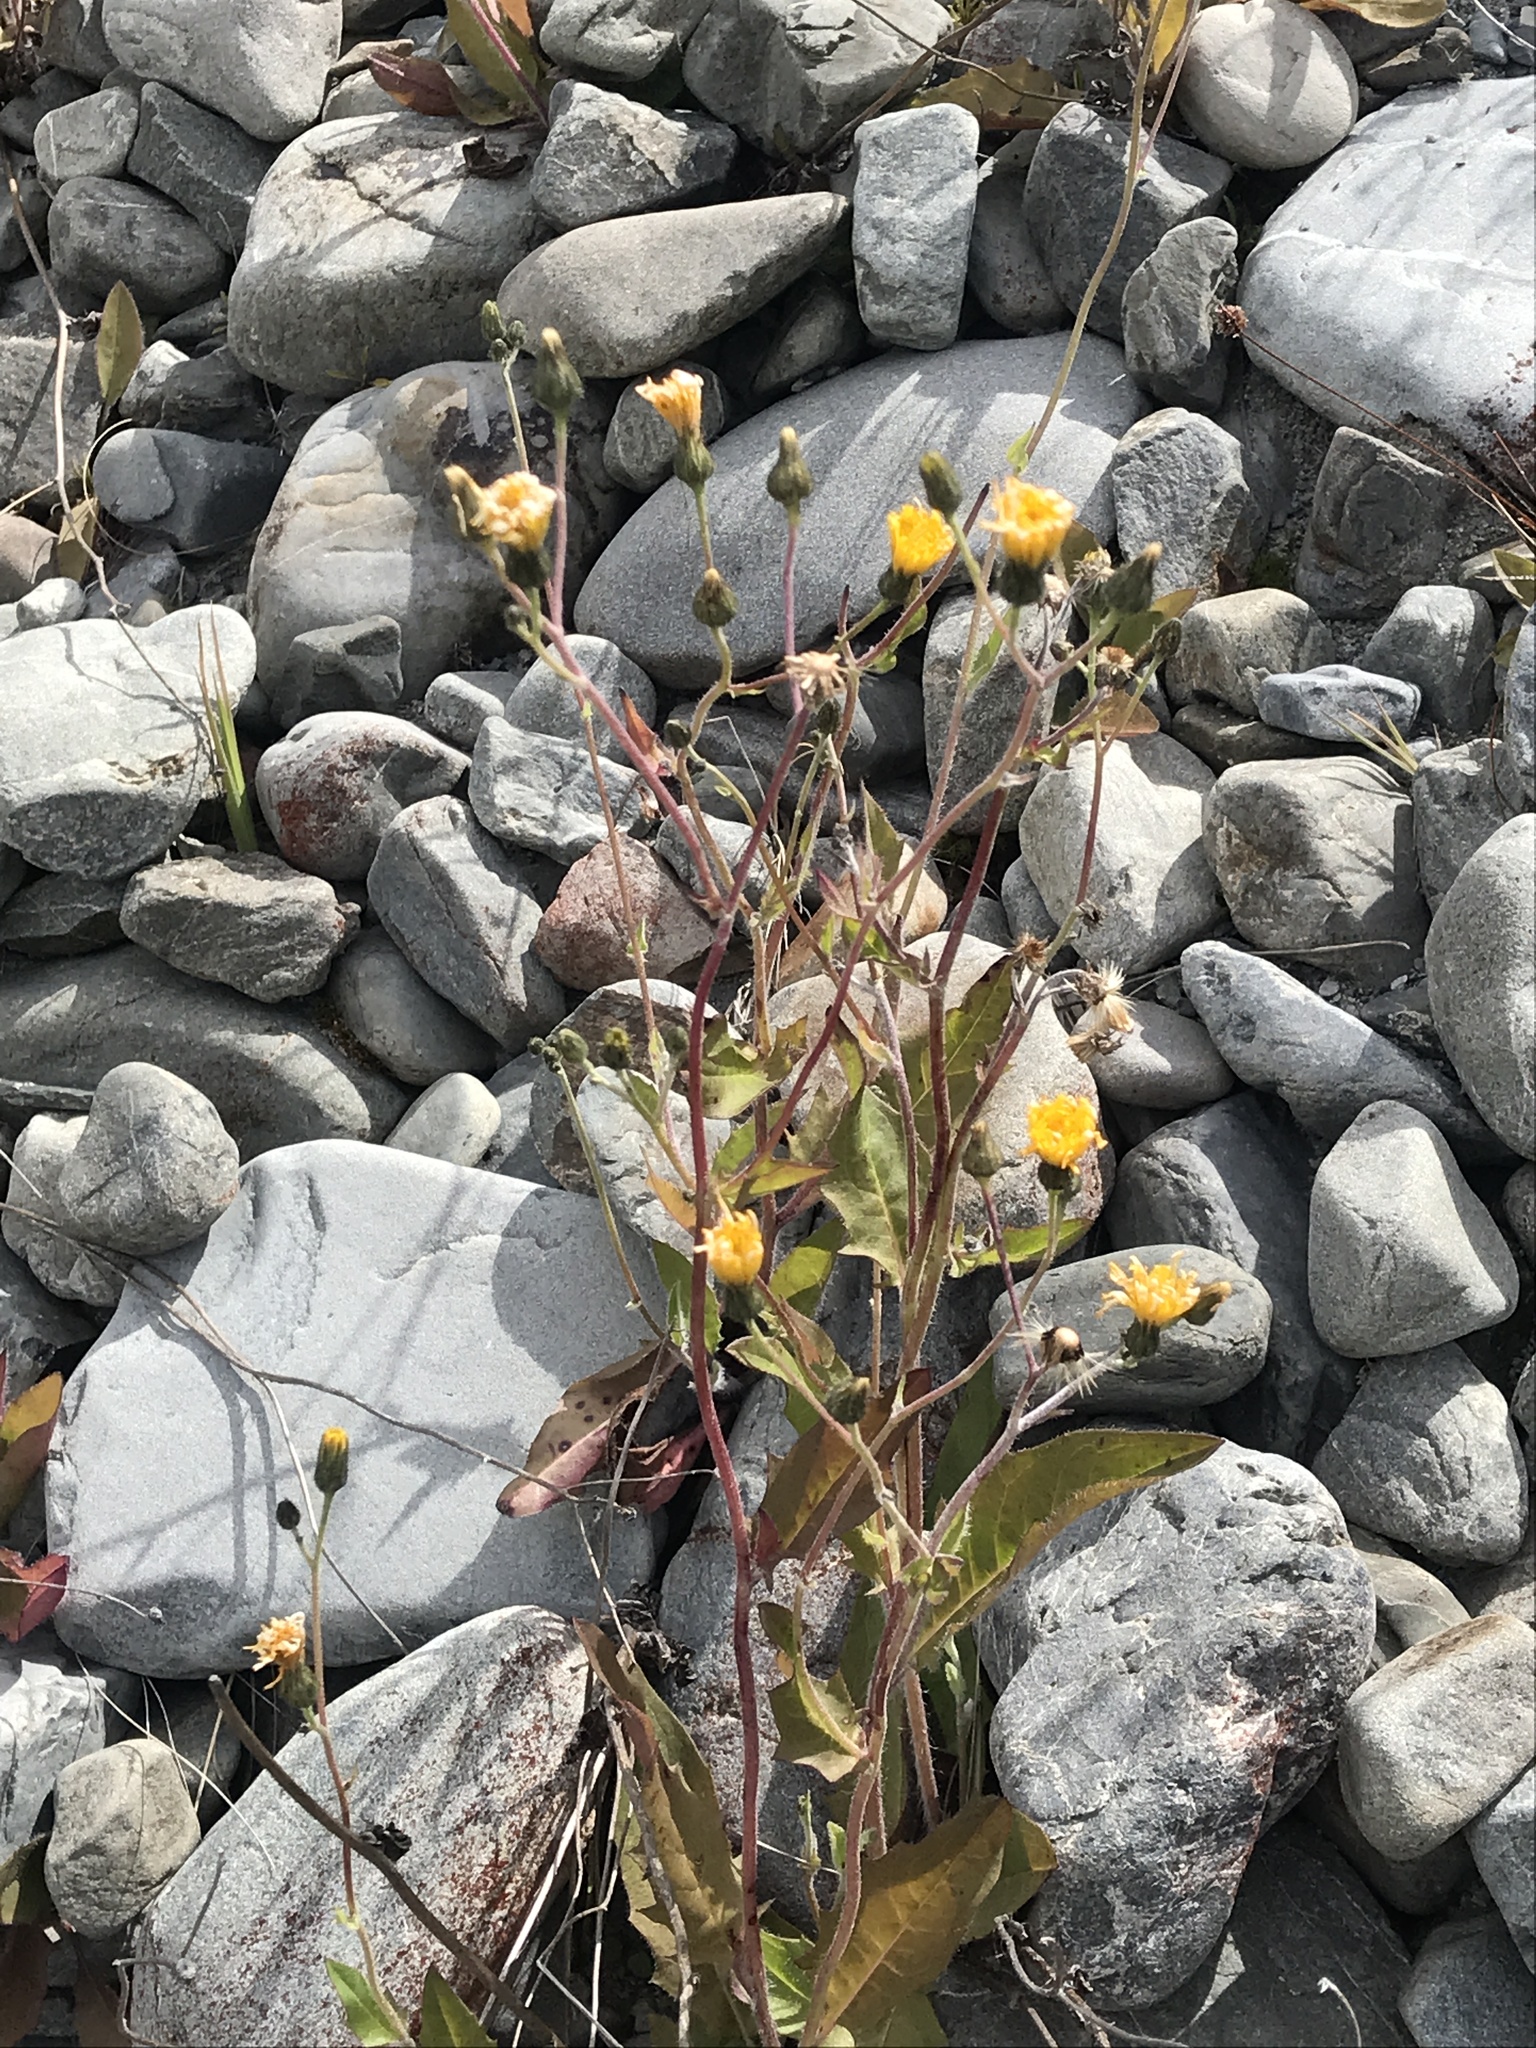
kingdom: Plantae
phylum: Tracheophyta
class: Magnoliopsida
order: Asterales
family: Asteraceae
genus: Hieracium
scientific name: Hieracium lepidulum
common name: Irregular-toothed hawkweed
